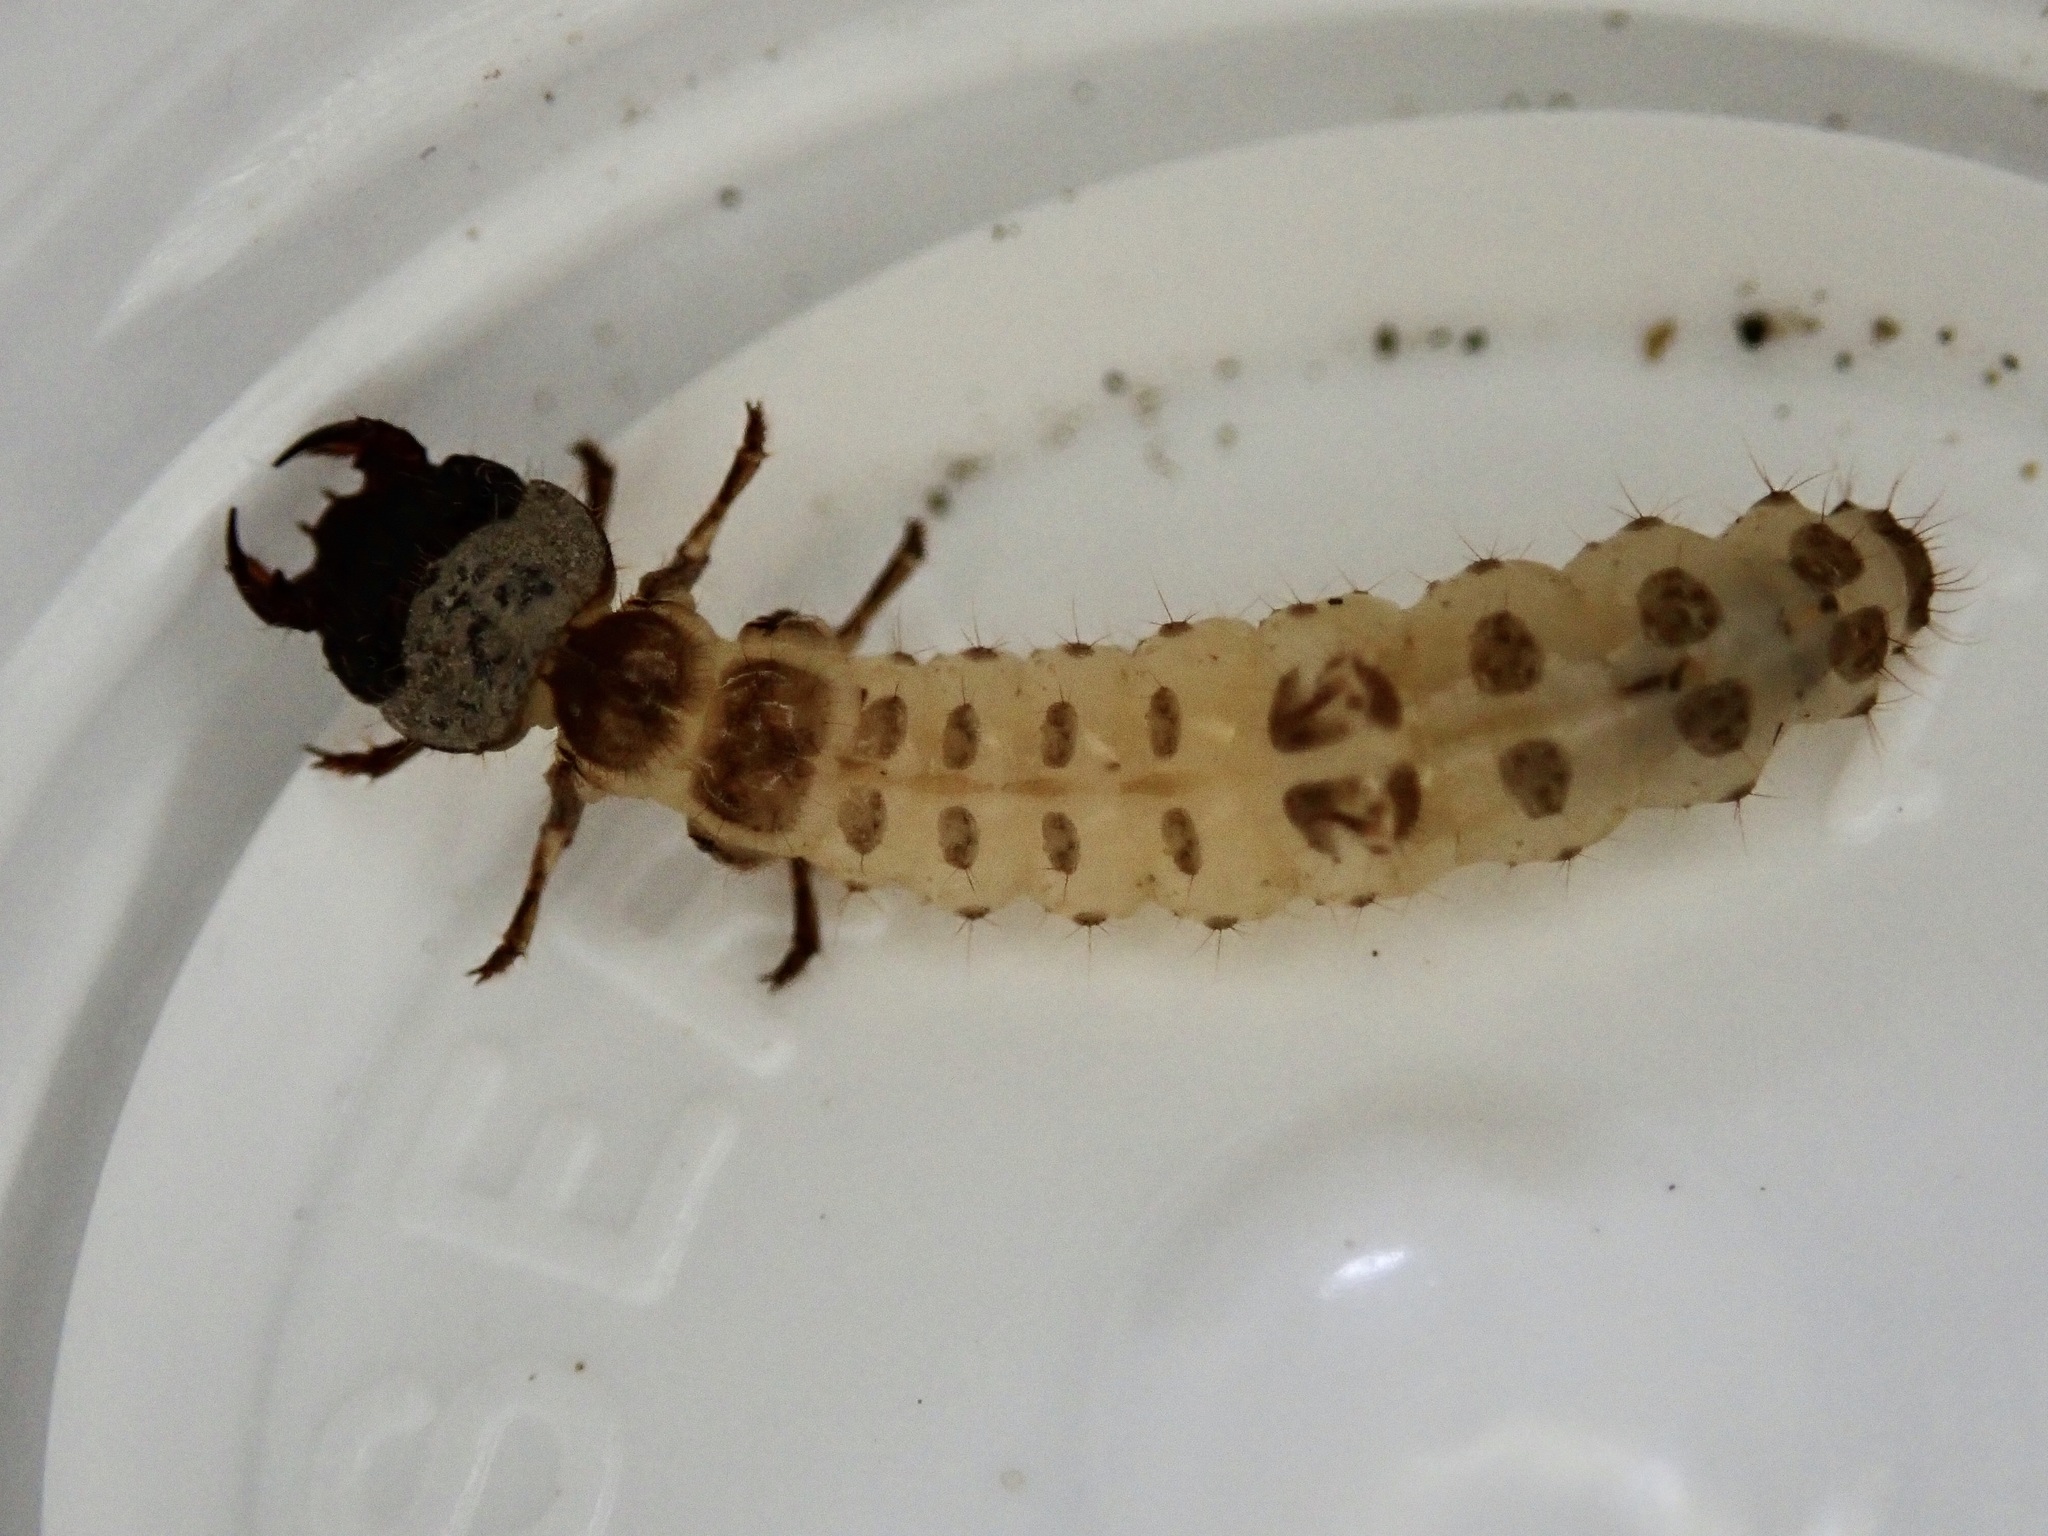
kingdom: Animalia
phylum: Arthropoda
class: Insecta
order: Coleoptera
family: Carabidae
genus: Cicindelina
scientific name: Cicindelina
